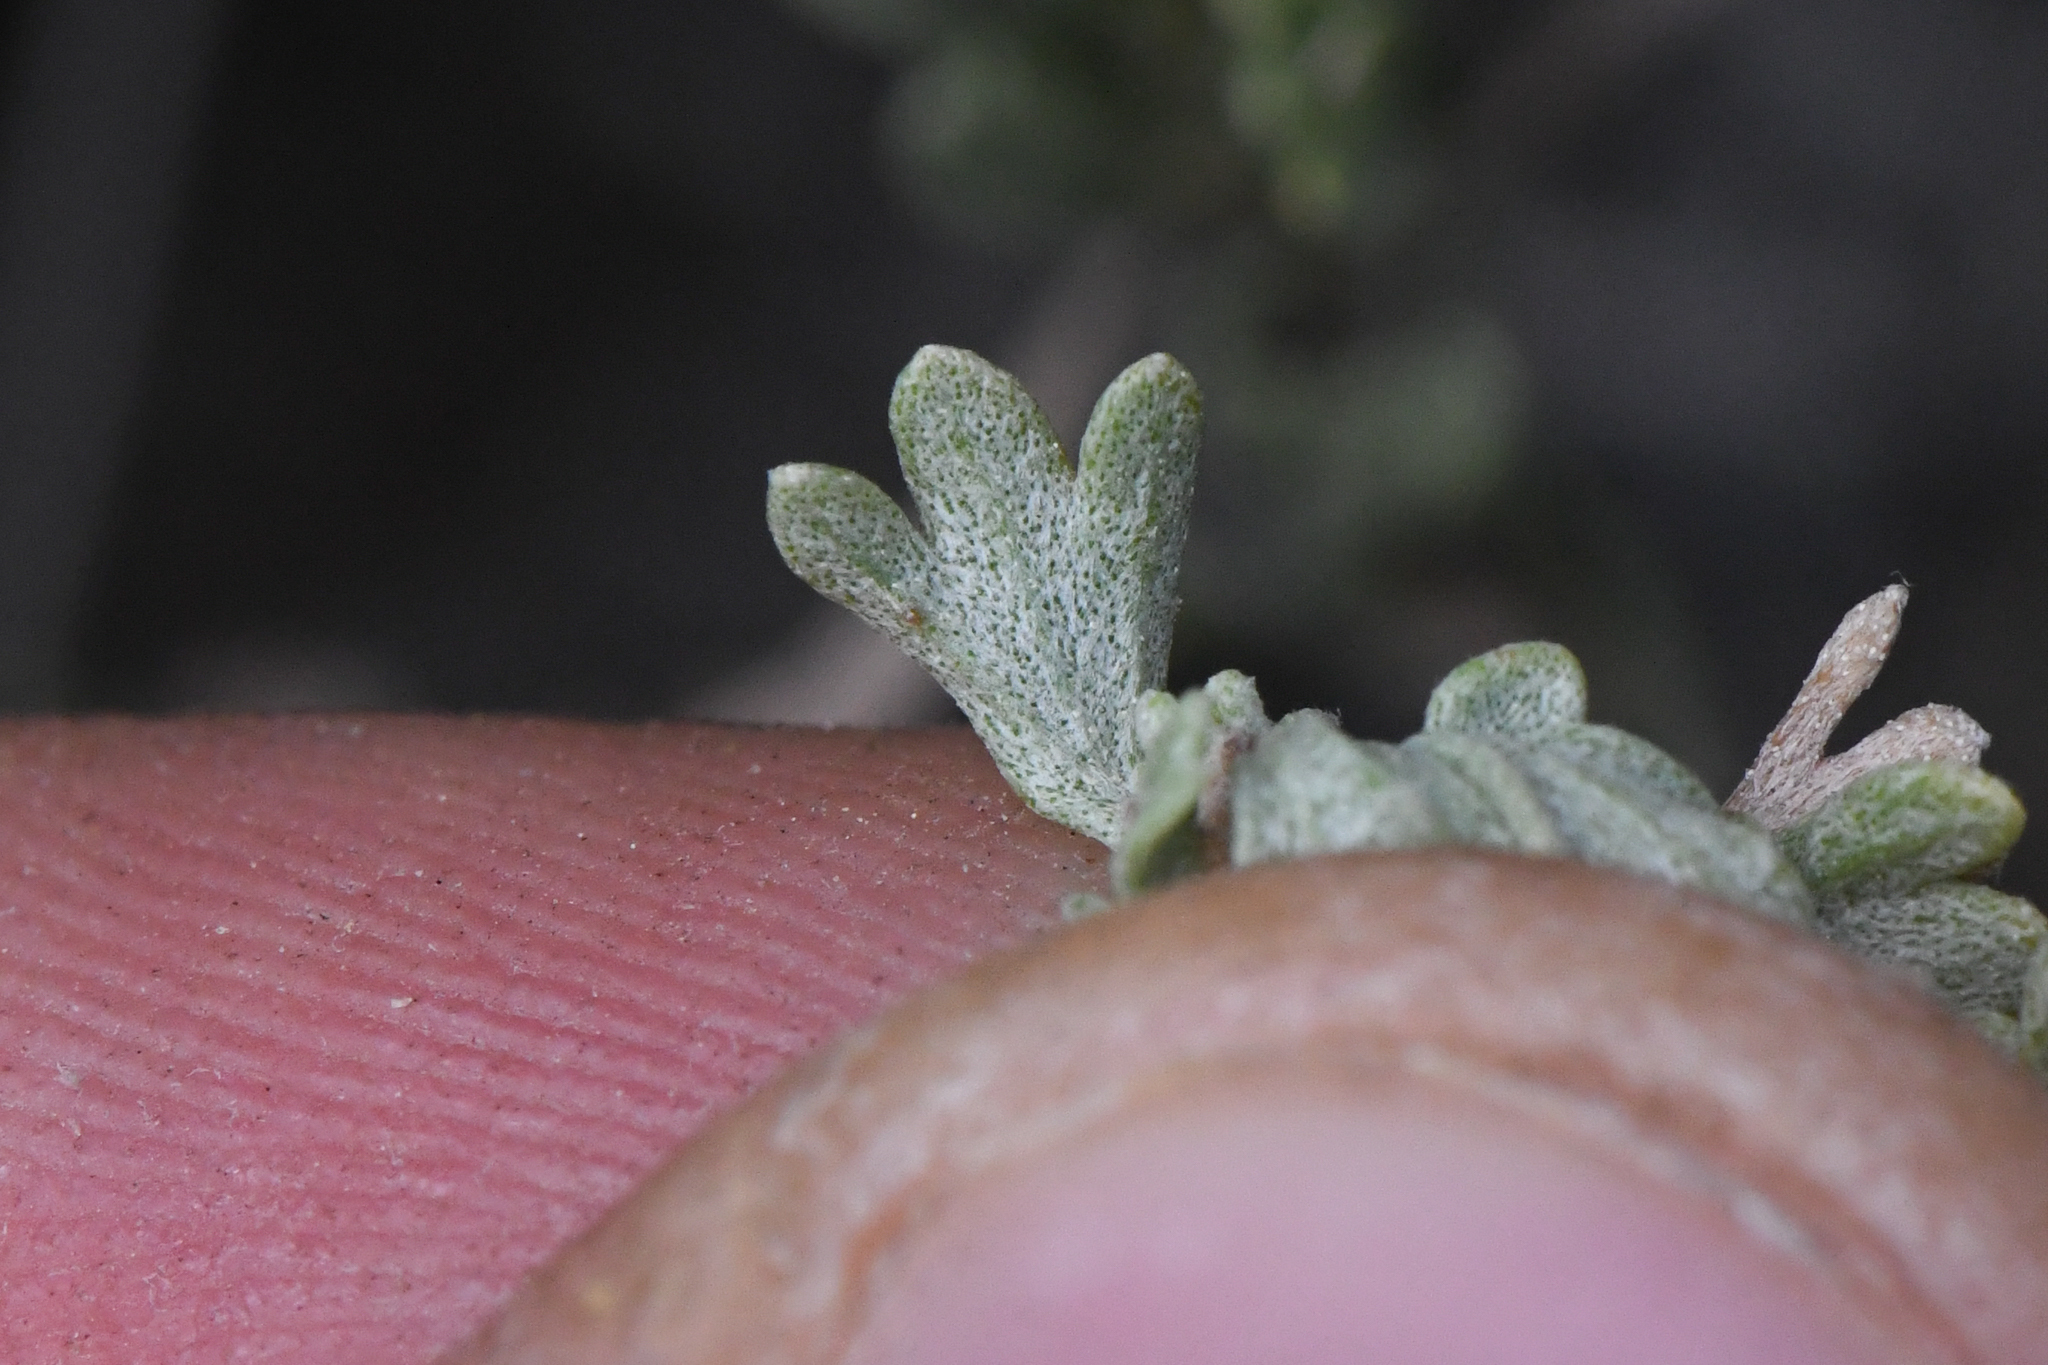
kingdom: Plantae
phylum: Tracheophyta
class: Magnoliopsida
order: Asterales
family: Asteraceae
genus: Artemisia
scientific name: Artemisia nova
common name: Black-sage
